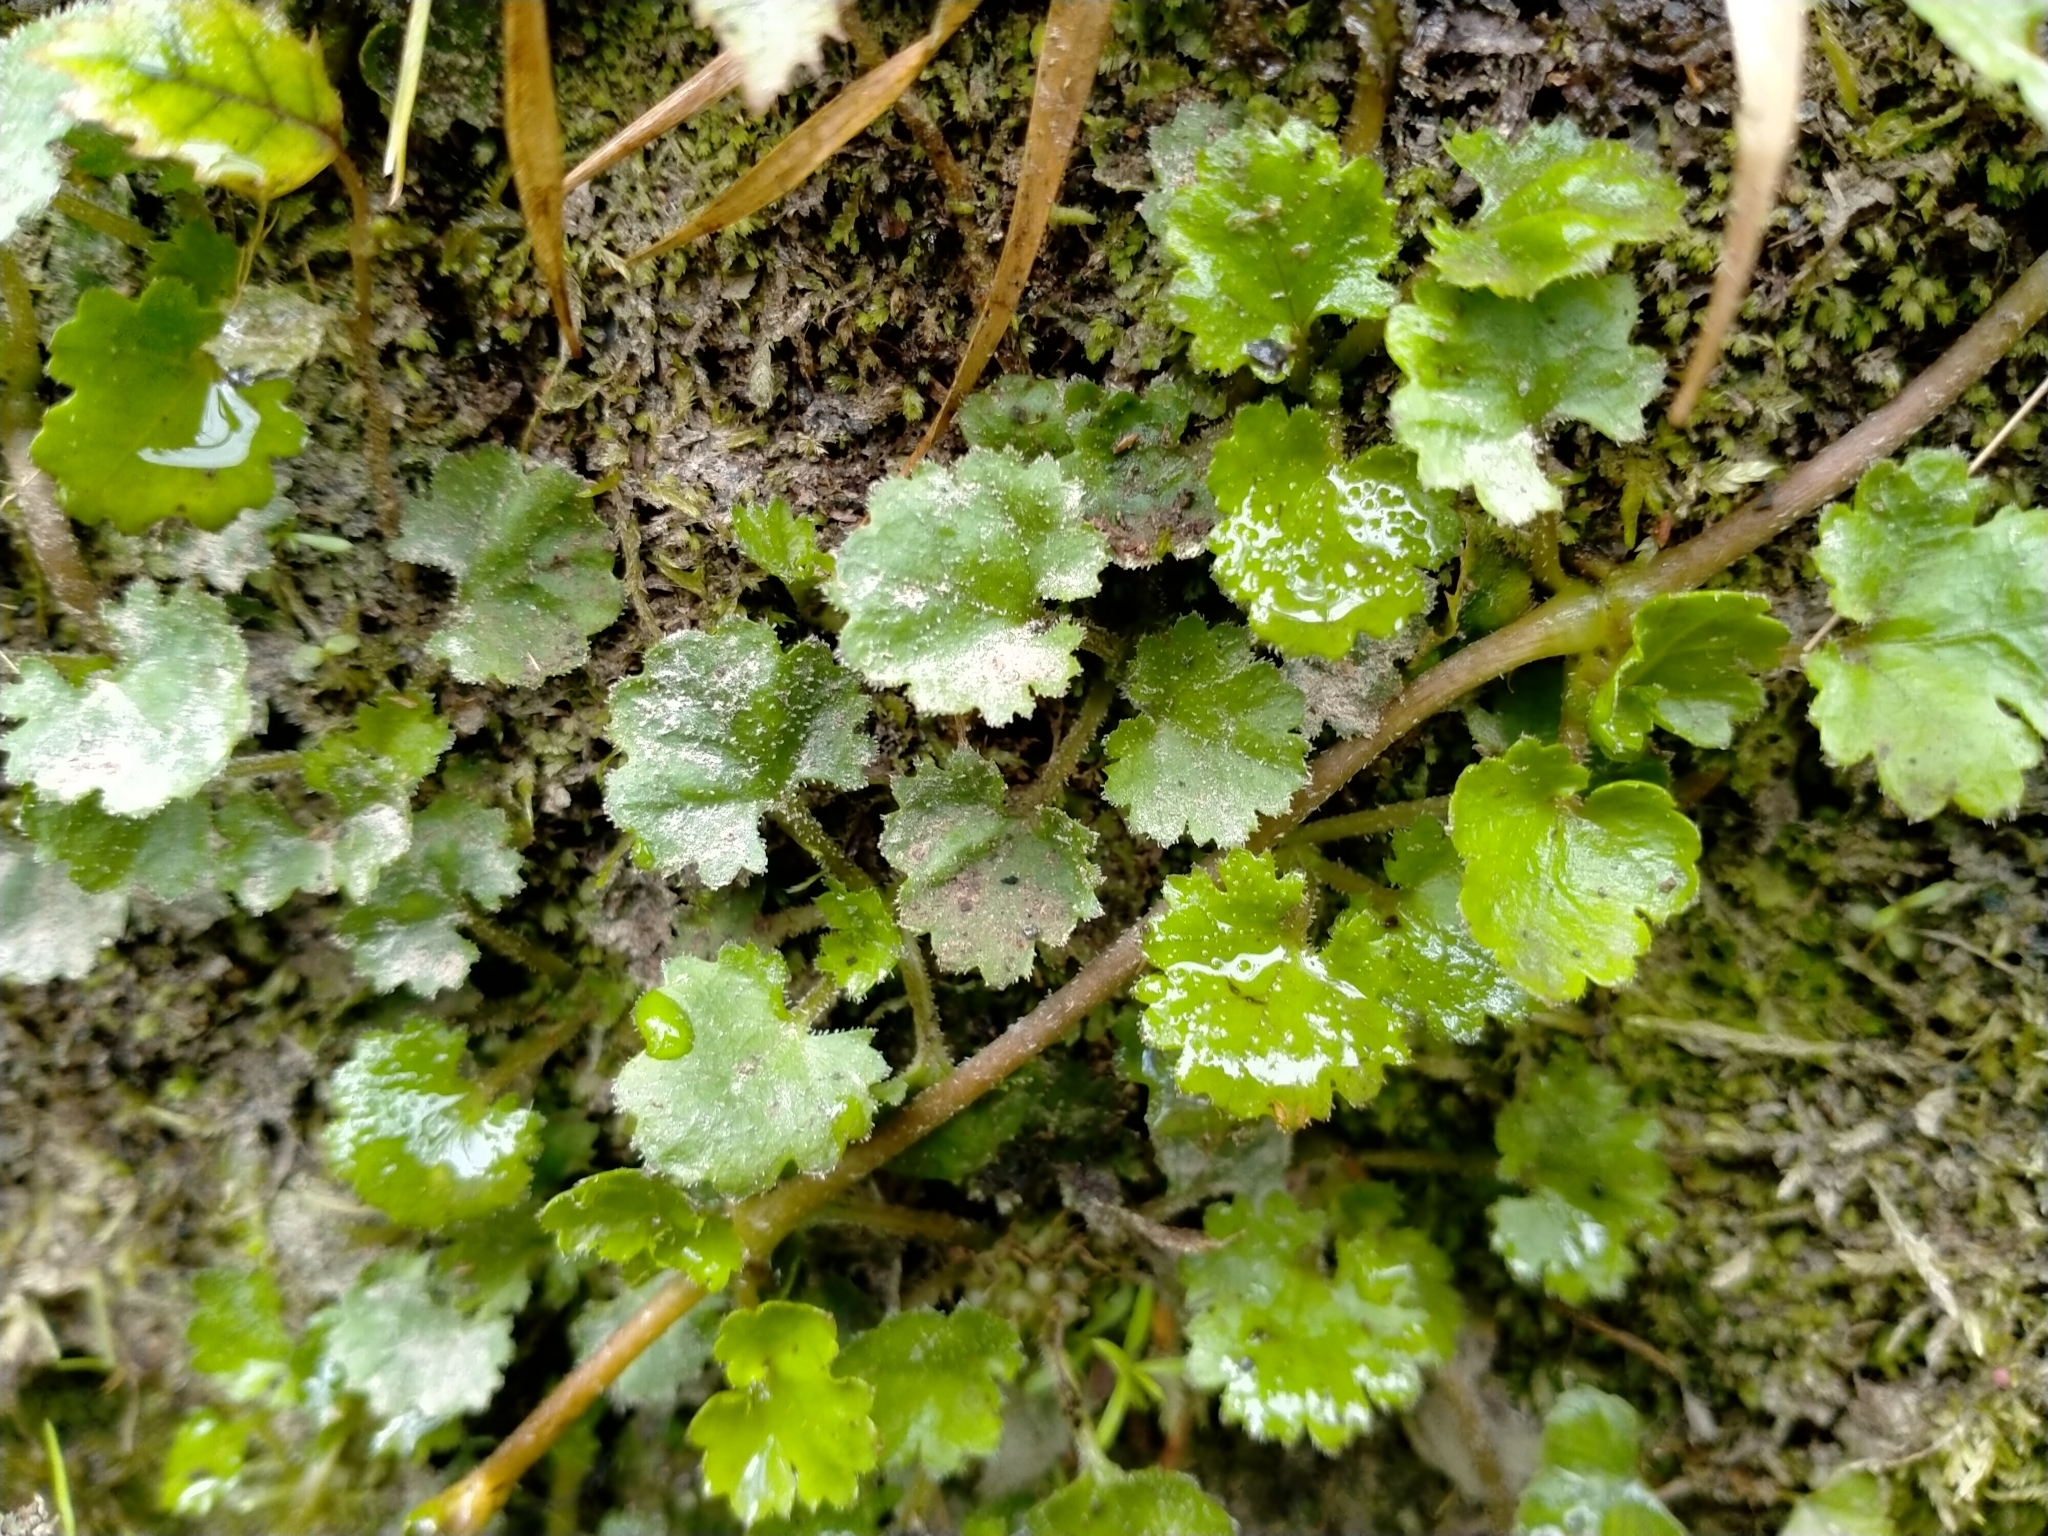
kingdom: Plantae
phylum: Tracheophyta
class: Magnoliopsida
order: Gunnerales
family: Gunneraceae
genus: Gunnera
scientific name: Gunnera monoica
